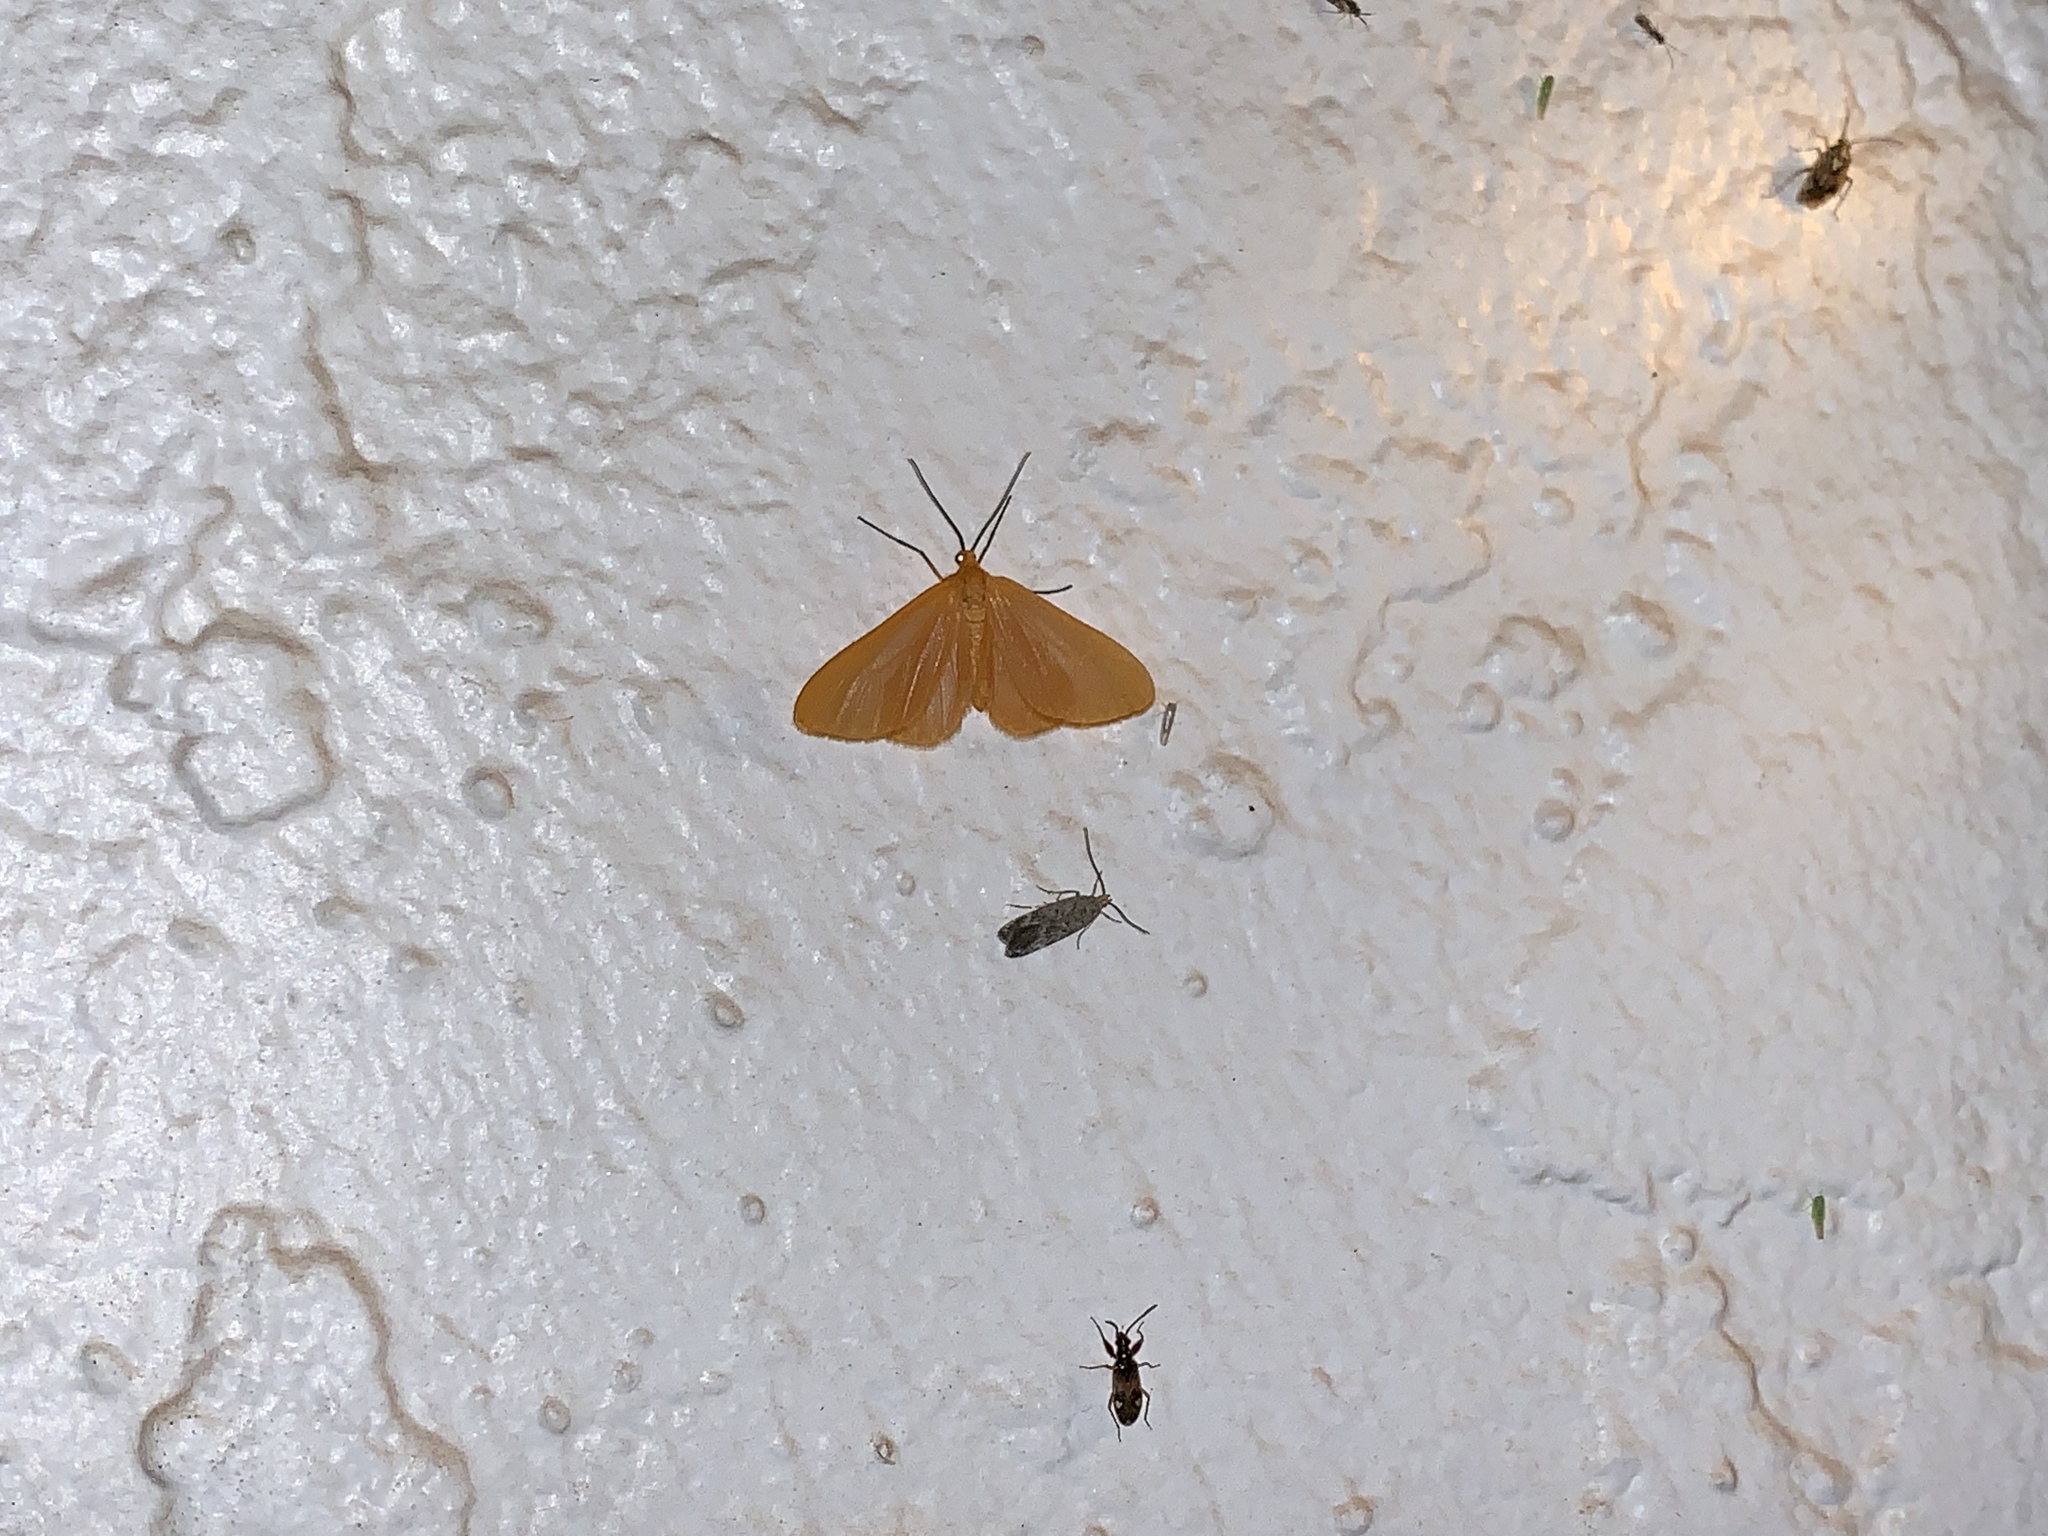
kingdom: Animalia
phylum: Arthropoda
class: Insecta
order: Lepidoptera
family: Geometridae
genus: Eubaphe
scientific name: Eubaphe unicolor
